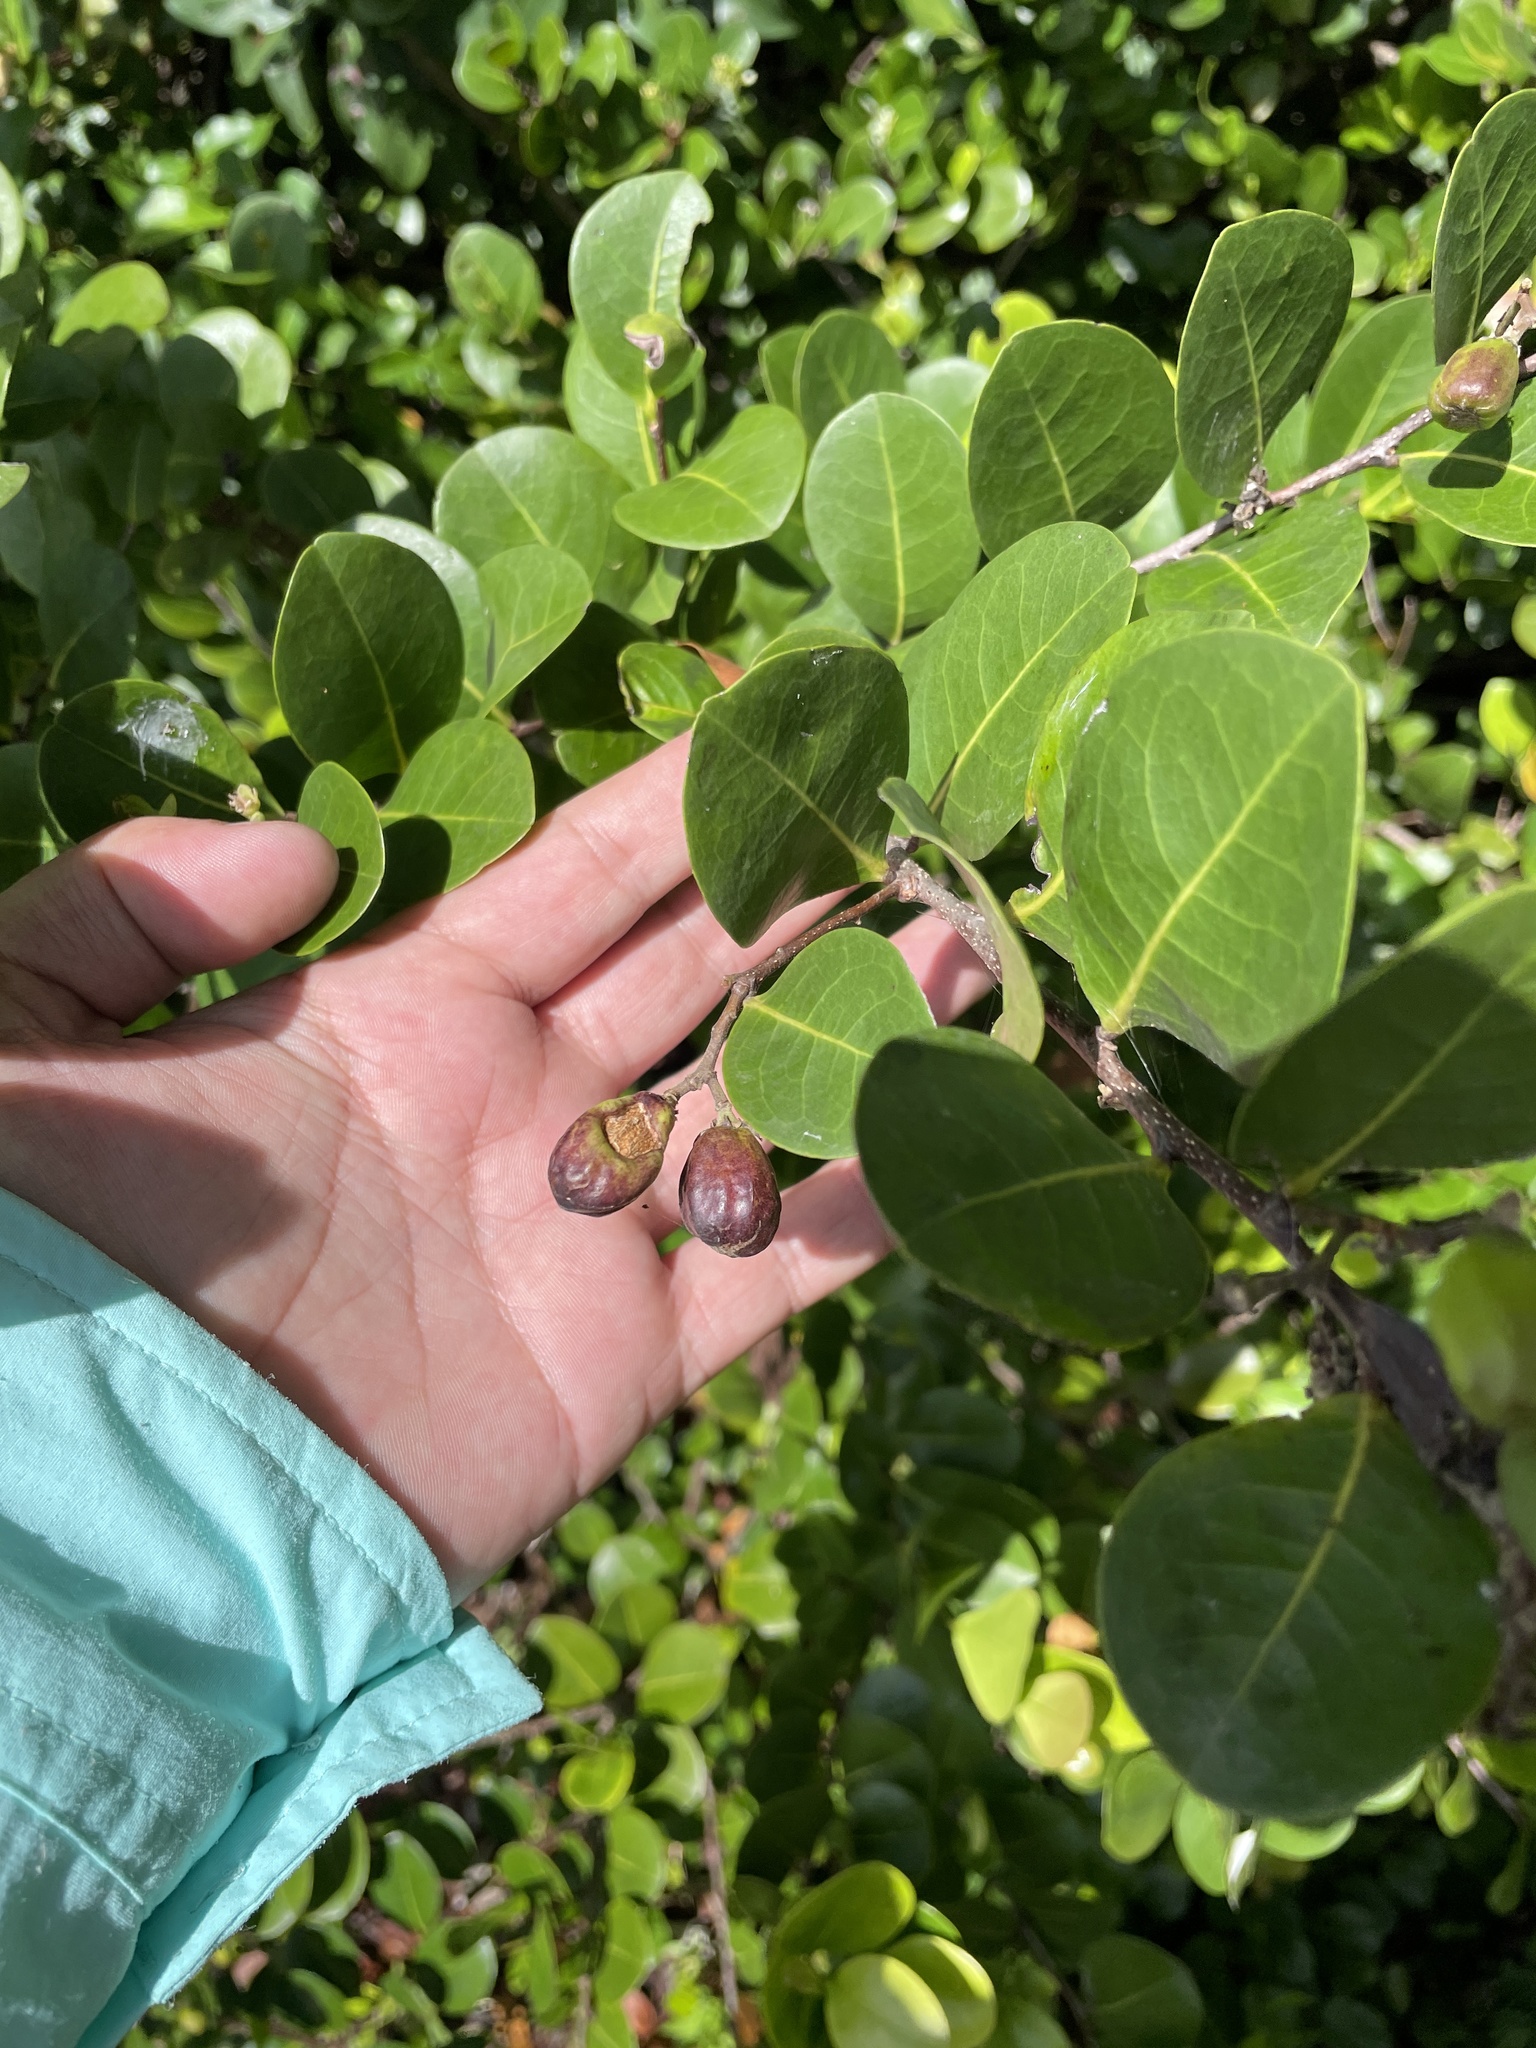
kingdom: Plantae
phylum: Tracheophyta
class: Magnoliopsida
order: Malpighiales
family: Chrysobalanaceae
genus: Chrysobalanus
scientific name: Chrysobalanus icaco
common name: Coco plum
